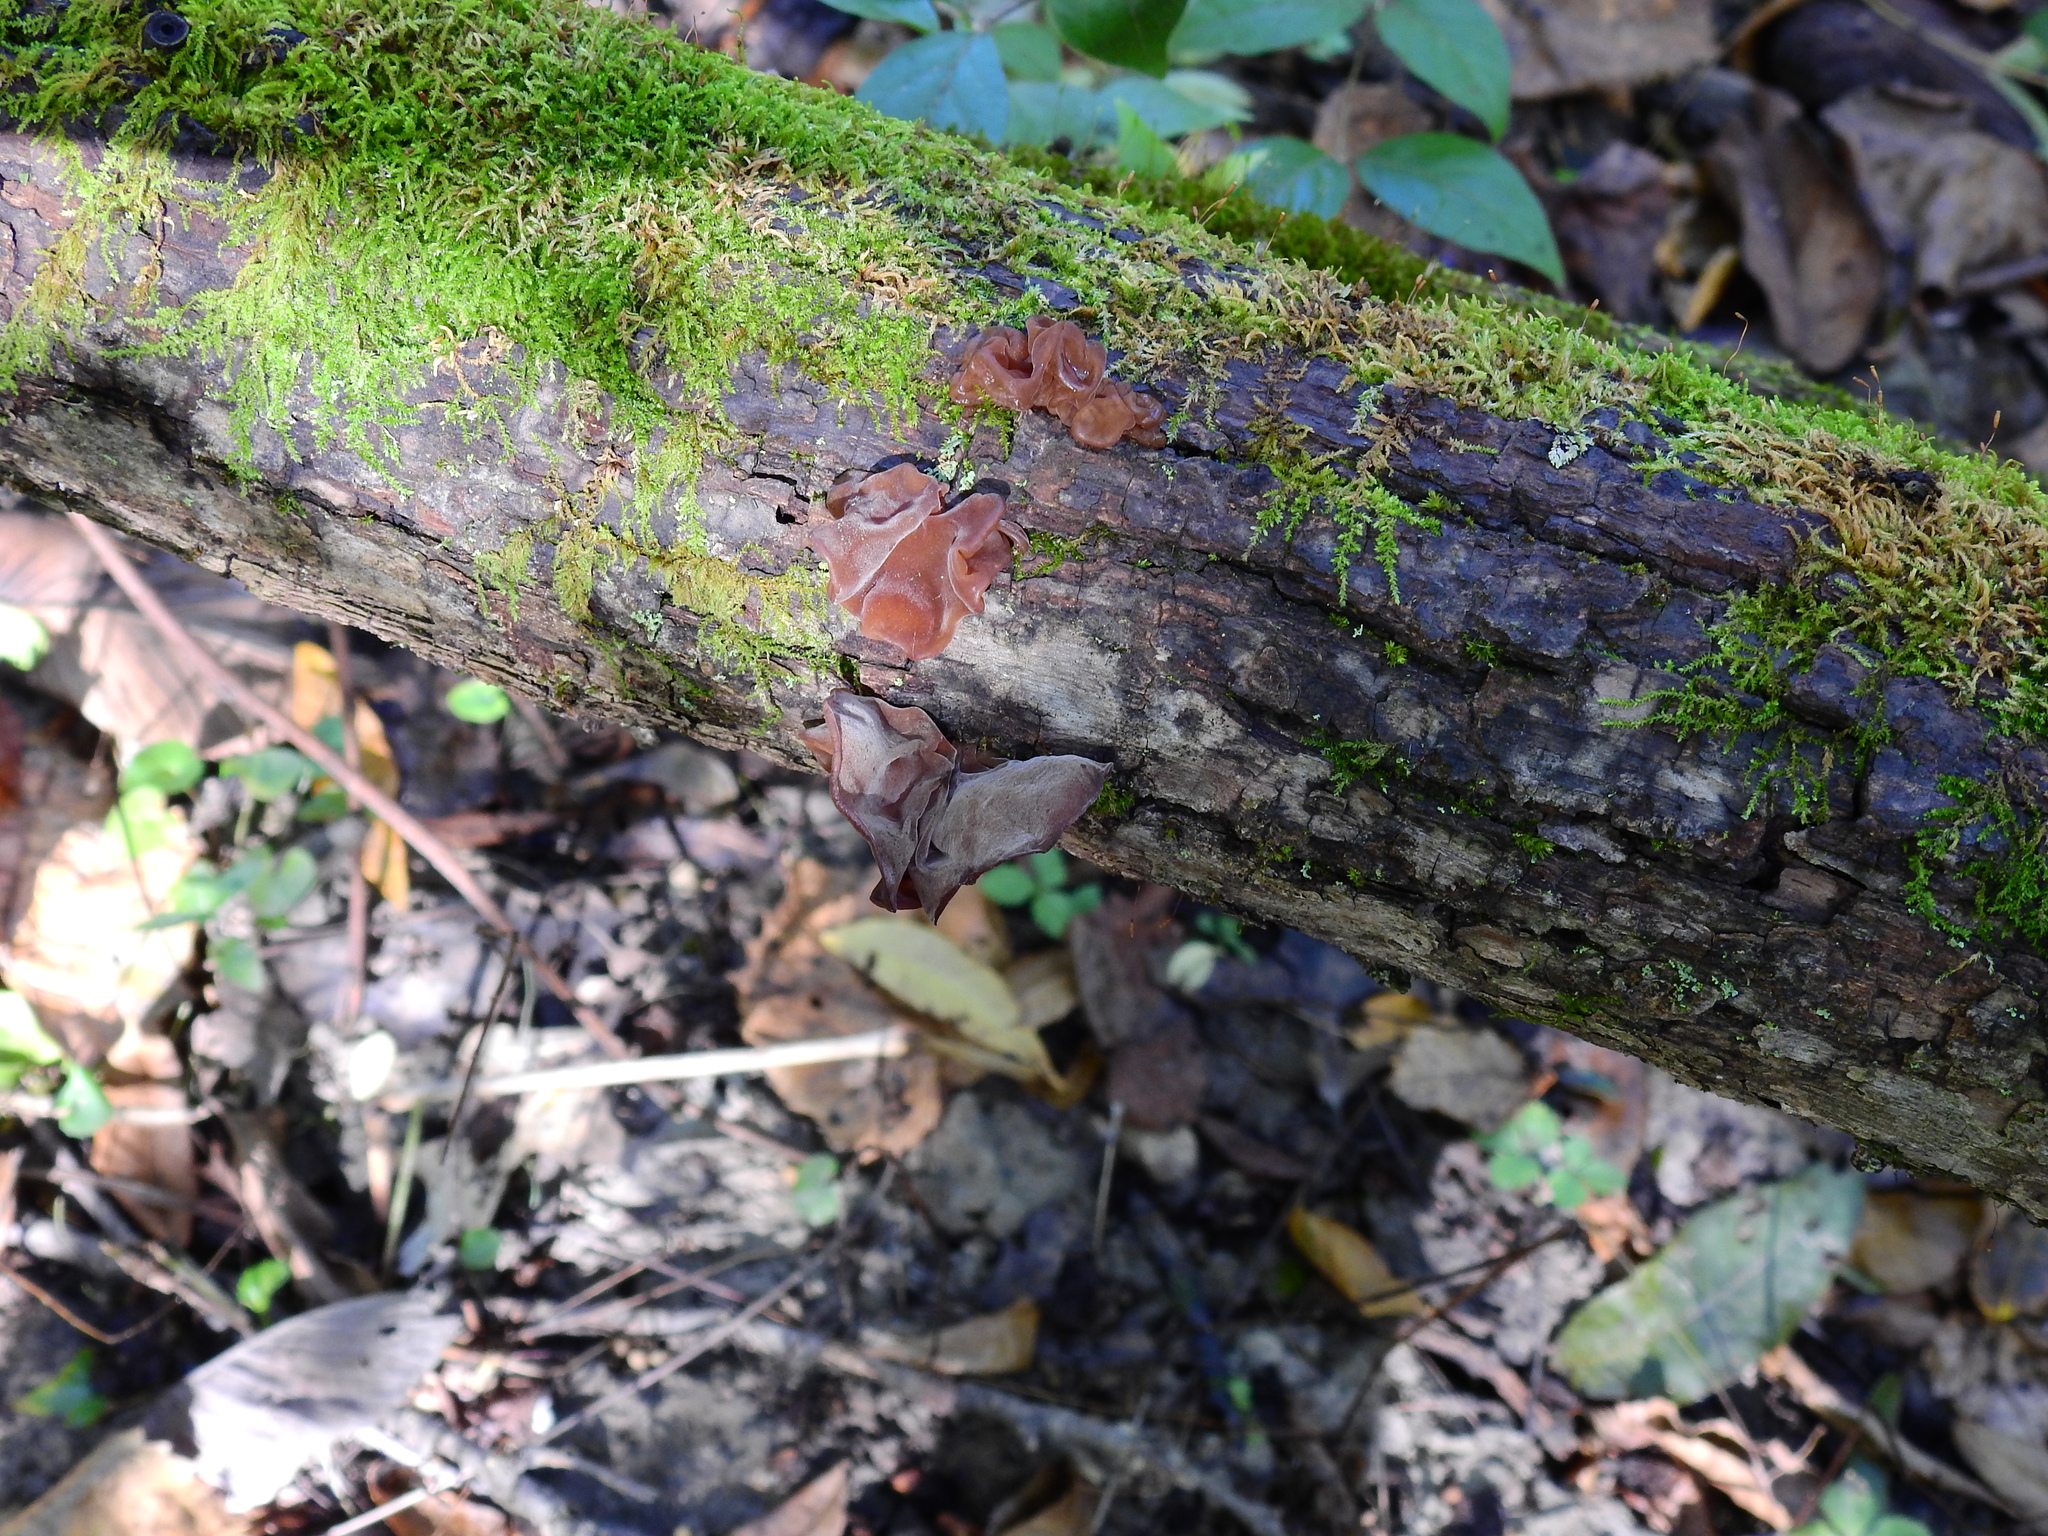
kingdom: Fungi
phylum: Basidiomycota
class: Agaricomycetes
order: Auriculariales
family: Auriculariaceae
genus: Auricularia
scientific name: Auricularia angiospermarum
